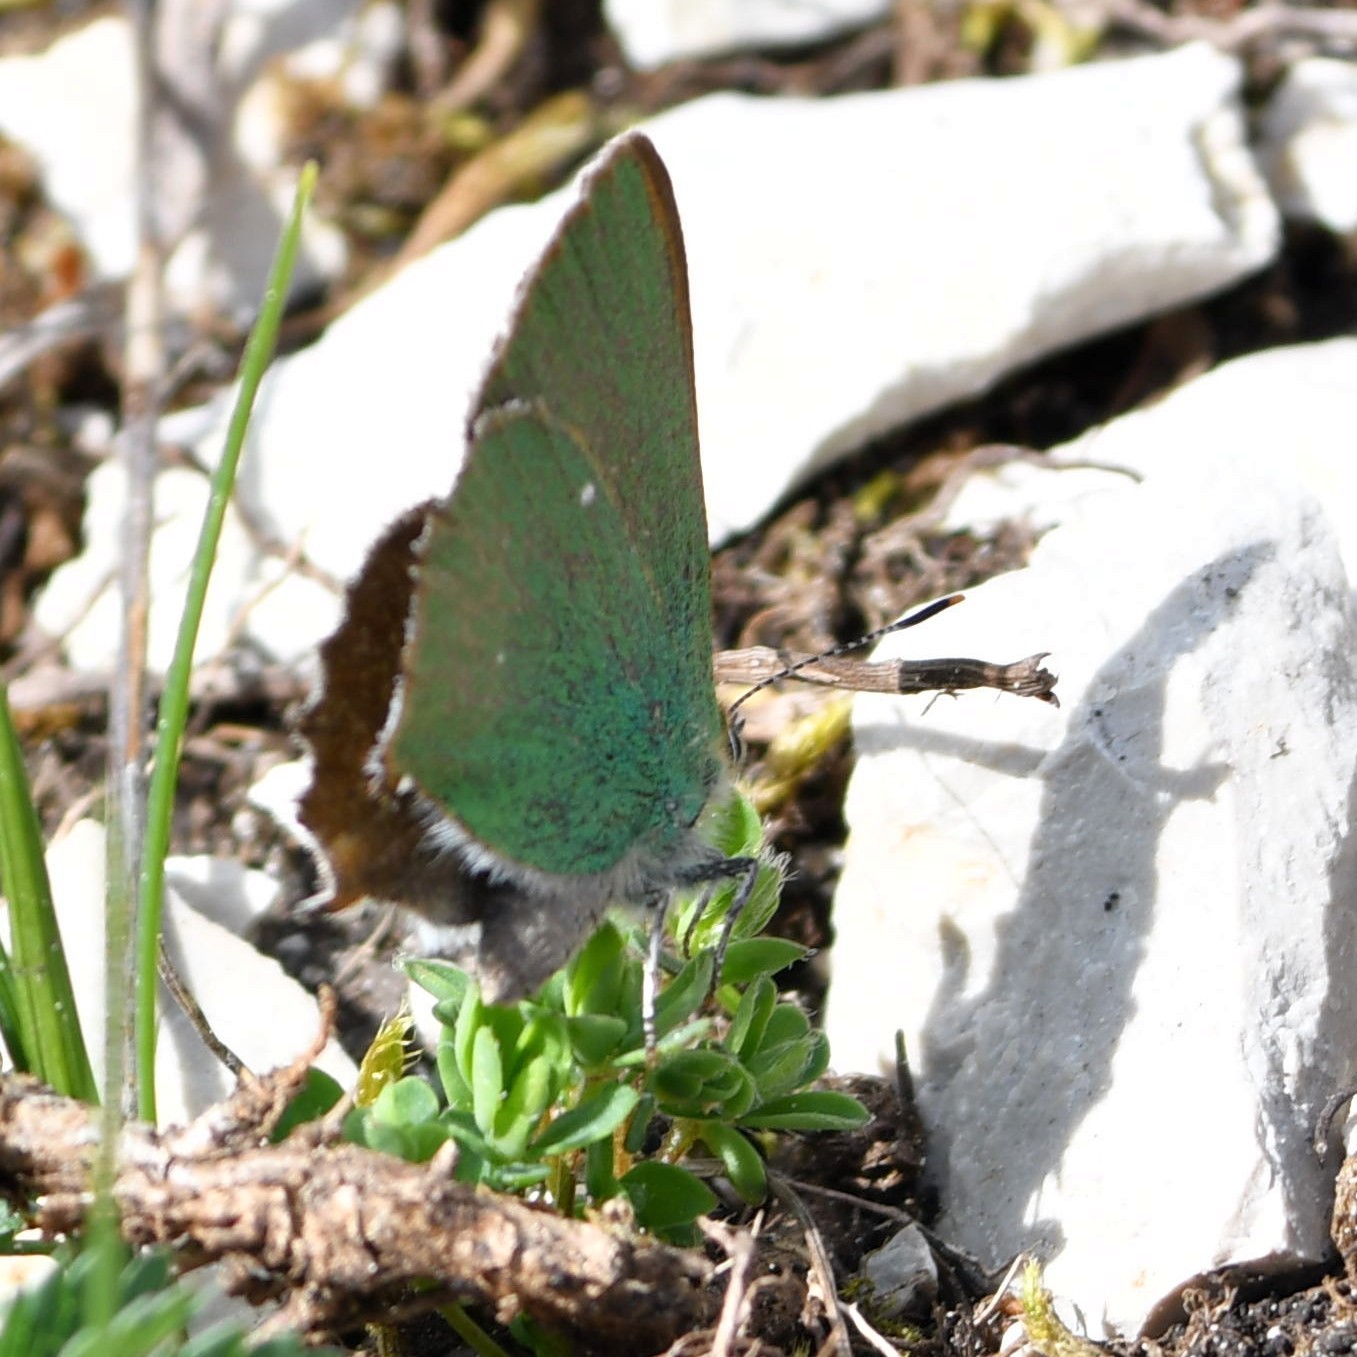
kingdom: Animalia
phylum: Arthropoda
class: Insecta
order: Lepidoptera
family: Lycaenidae
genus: Callophrys
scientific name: Callophrys rubi
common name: Green hairstreak
